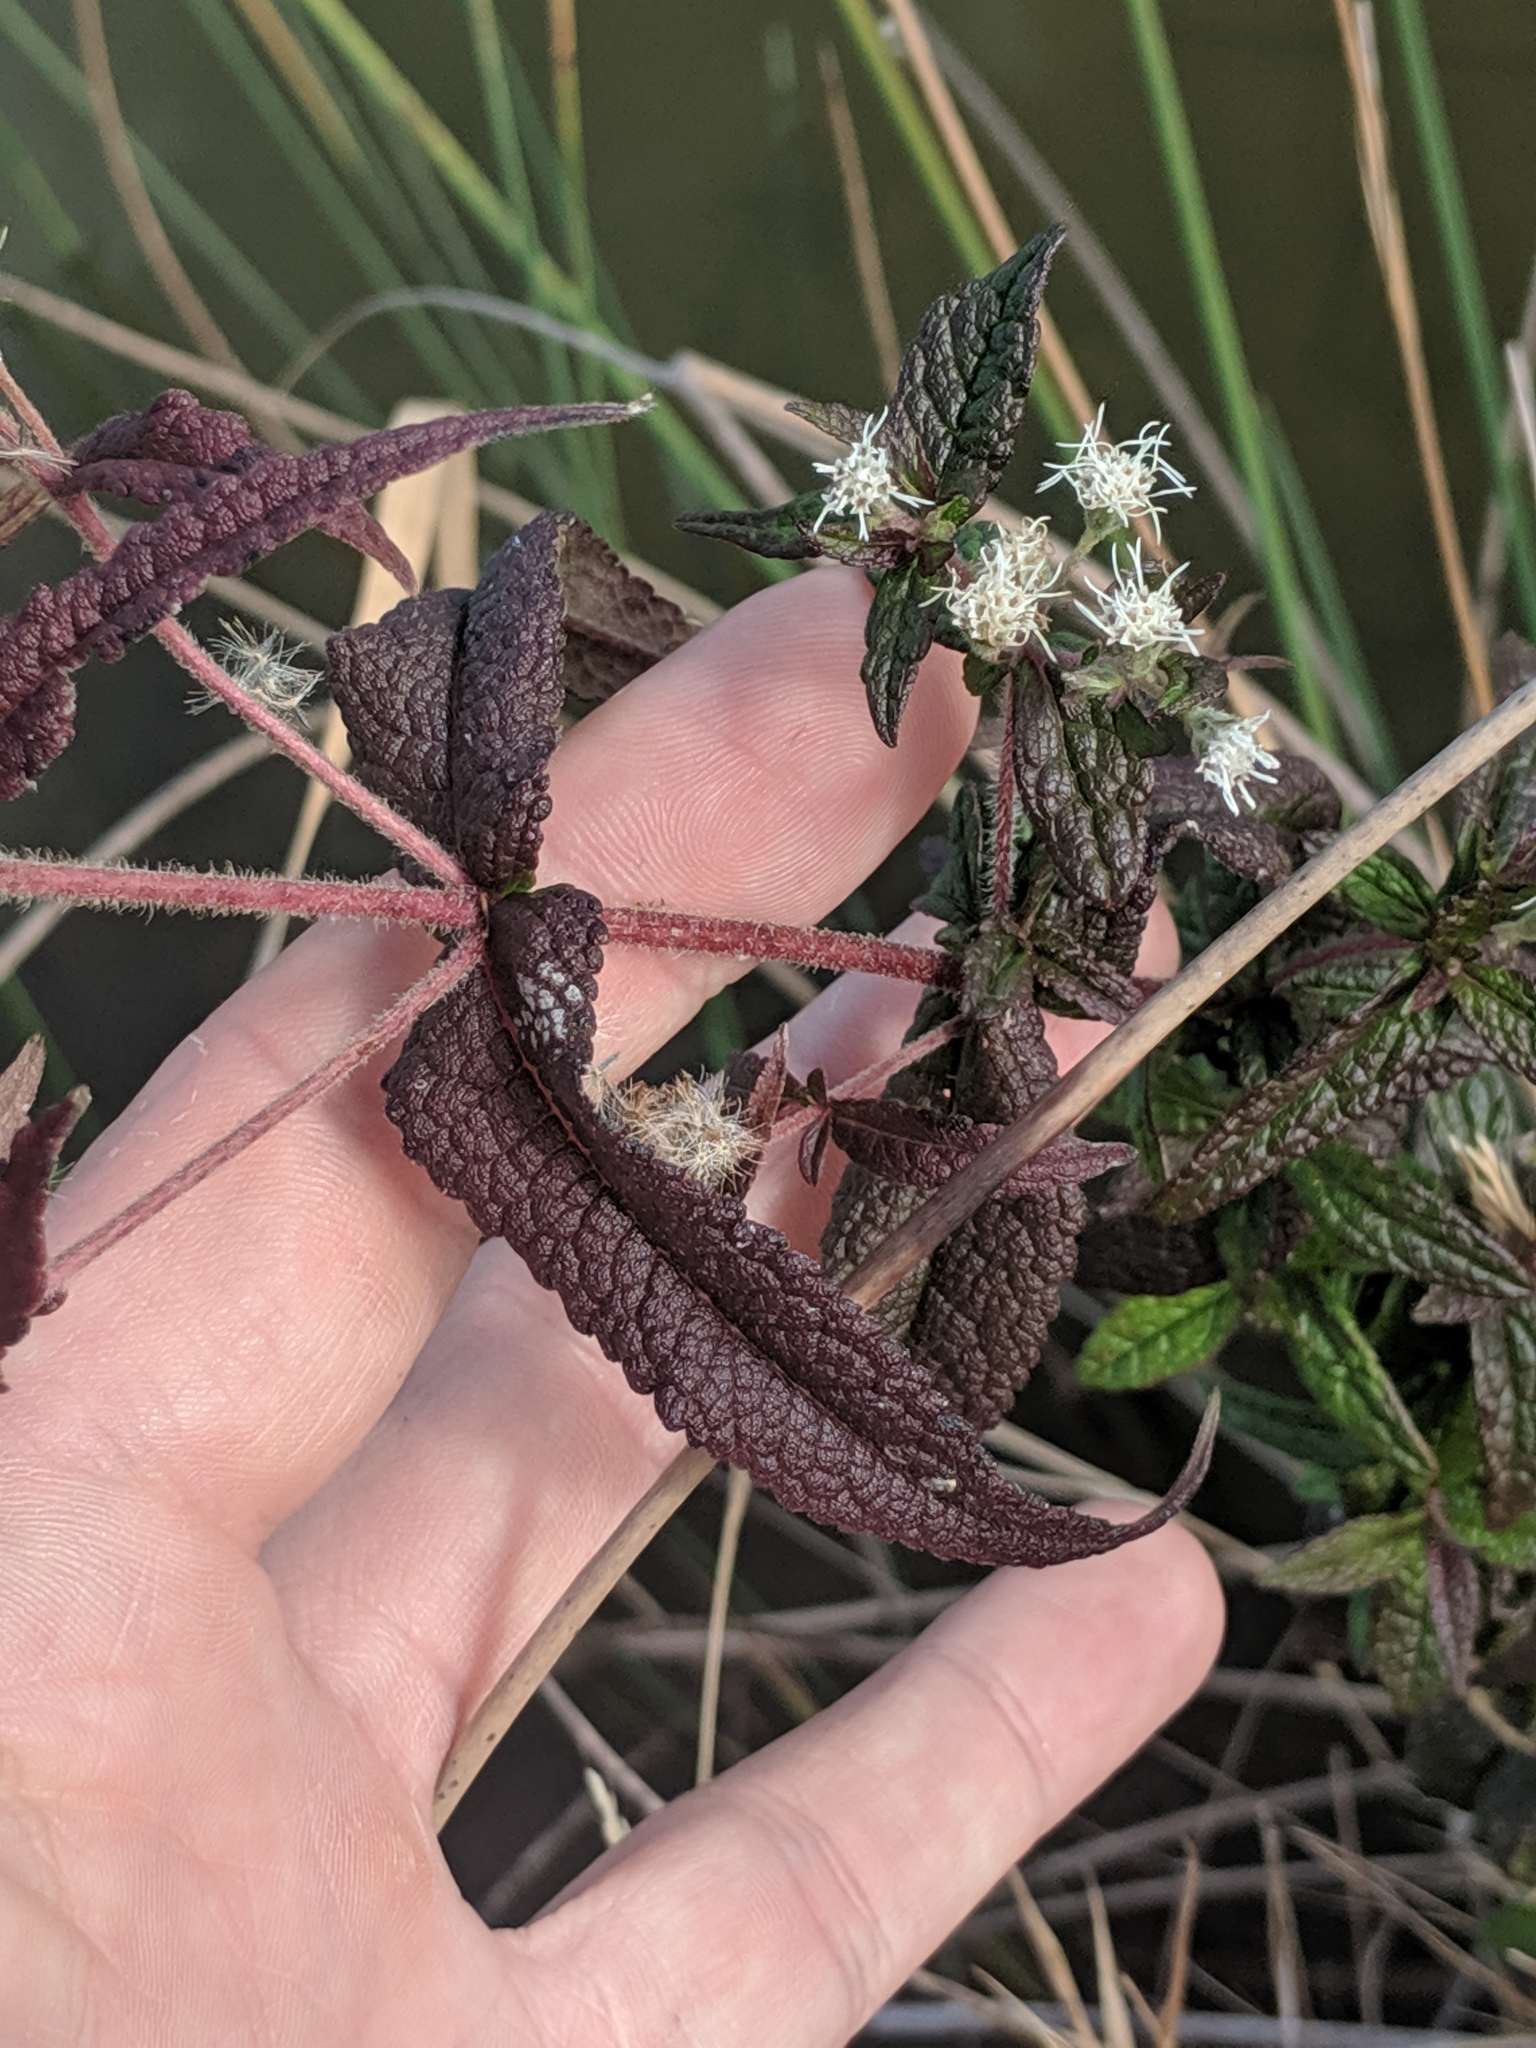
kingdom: Plantae
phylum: Tracheophyta
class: Magnoliopsida
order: Asterales
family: Asteraceae
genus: Eupatorium
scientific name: Eupatorium perfoliatum
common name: Boneset
